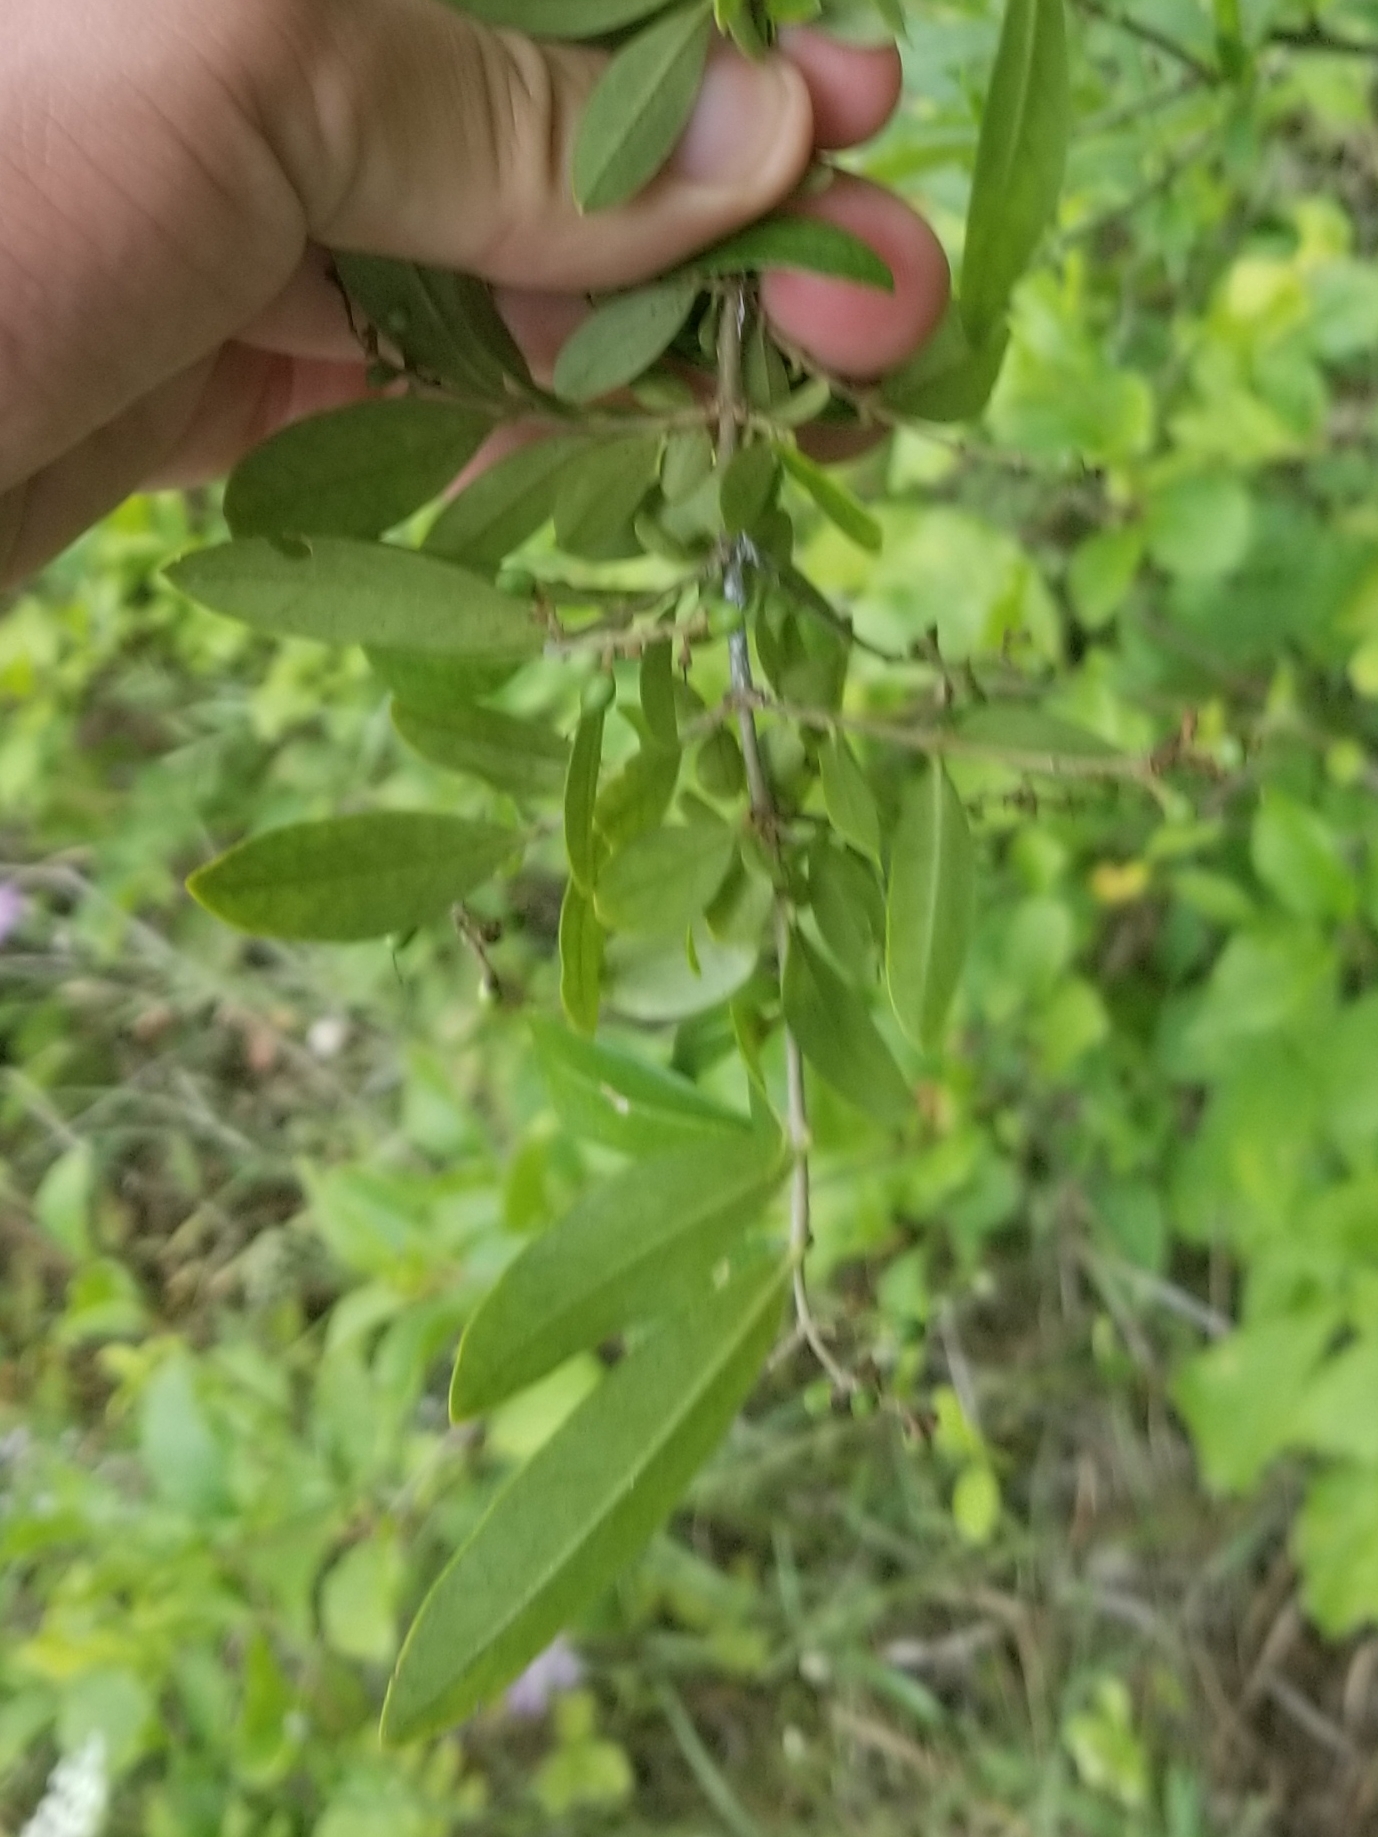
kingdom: Plantae
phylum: Tracheophyta
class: Magnoliopsida
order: Lamiales
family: Oleaceae
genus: Ligustrum
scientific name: Ligustrum obtusifolium
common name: Border privet
